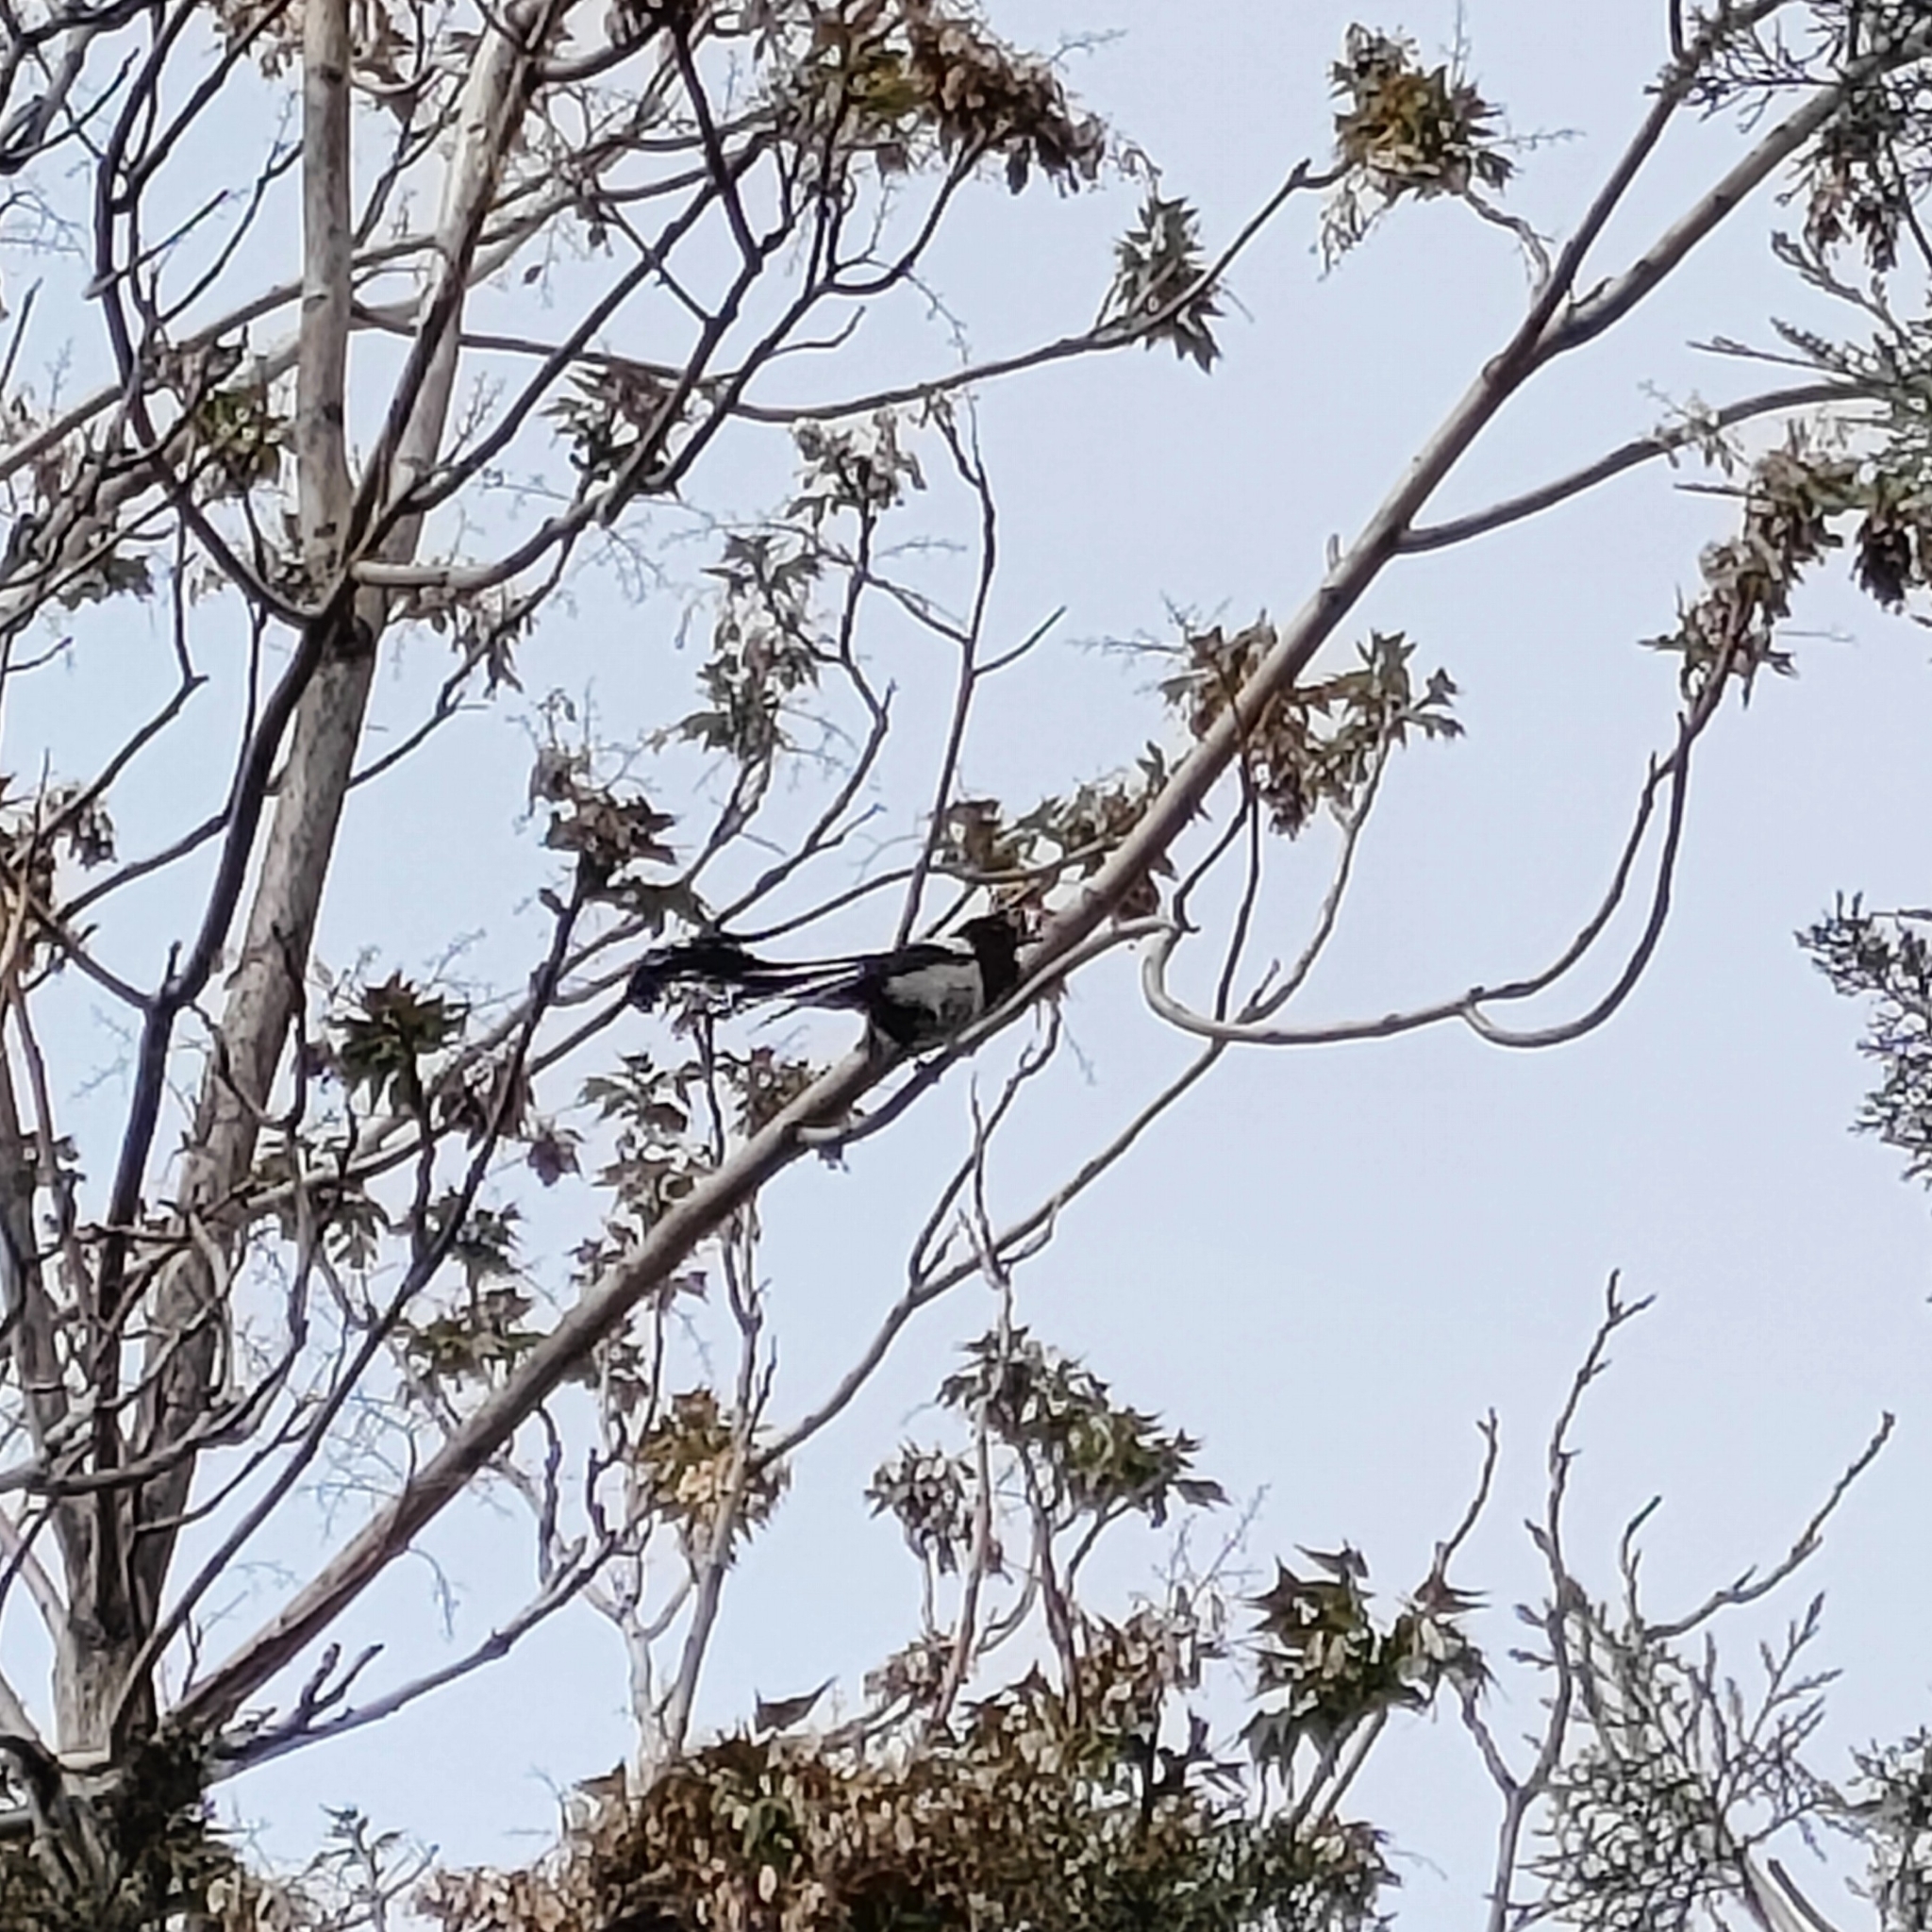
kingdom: Animalia
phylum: Chordata
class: Aves
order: Passeriformes
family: Corvidae
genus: Pica
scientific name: Pica pica
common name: Eurasian magpie
